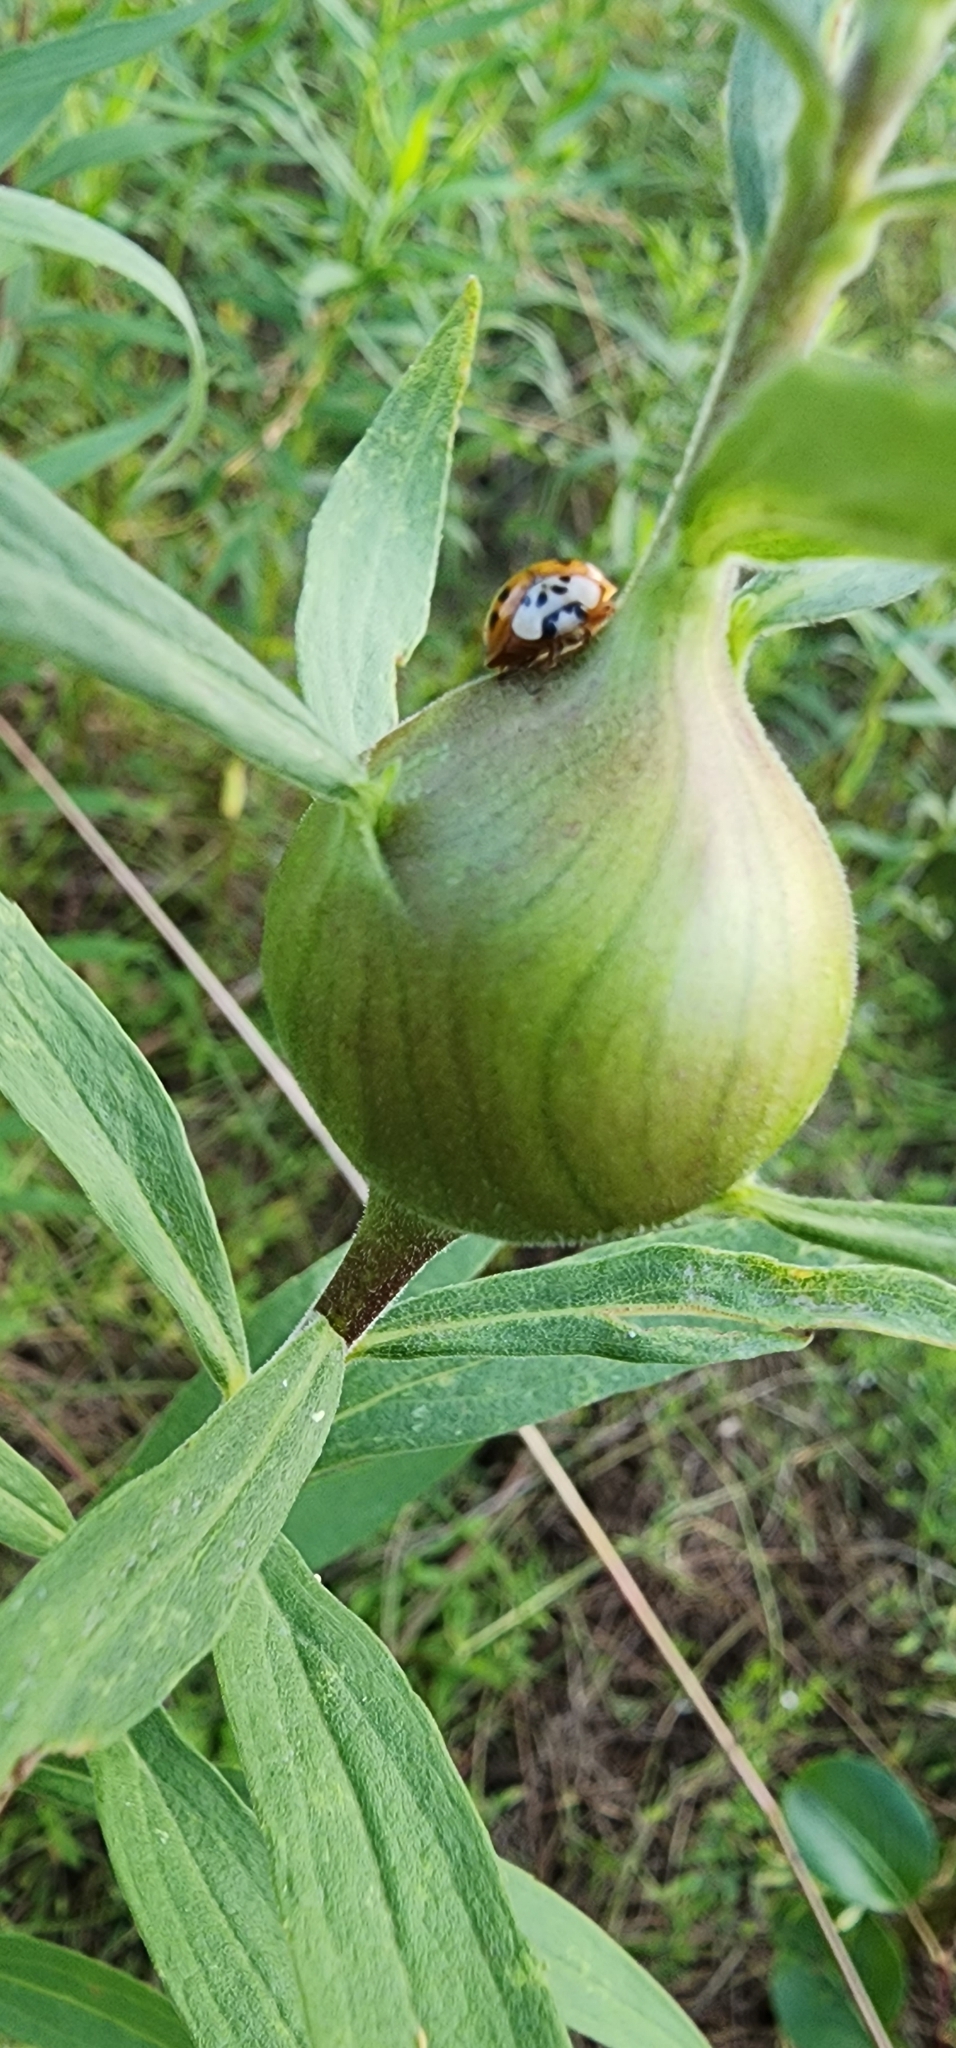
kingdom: Animalia
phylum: Arthropoda
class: Insecta
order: Coleoptera
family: Coccinellidae
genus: Coccinella
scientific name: Coccinella septempunctata
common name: Sevenspotted lady beetle
